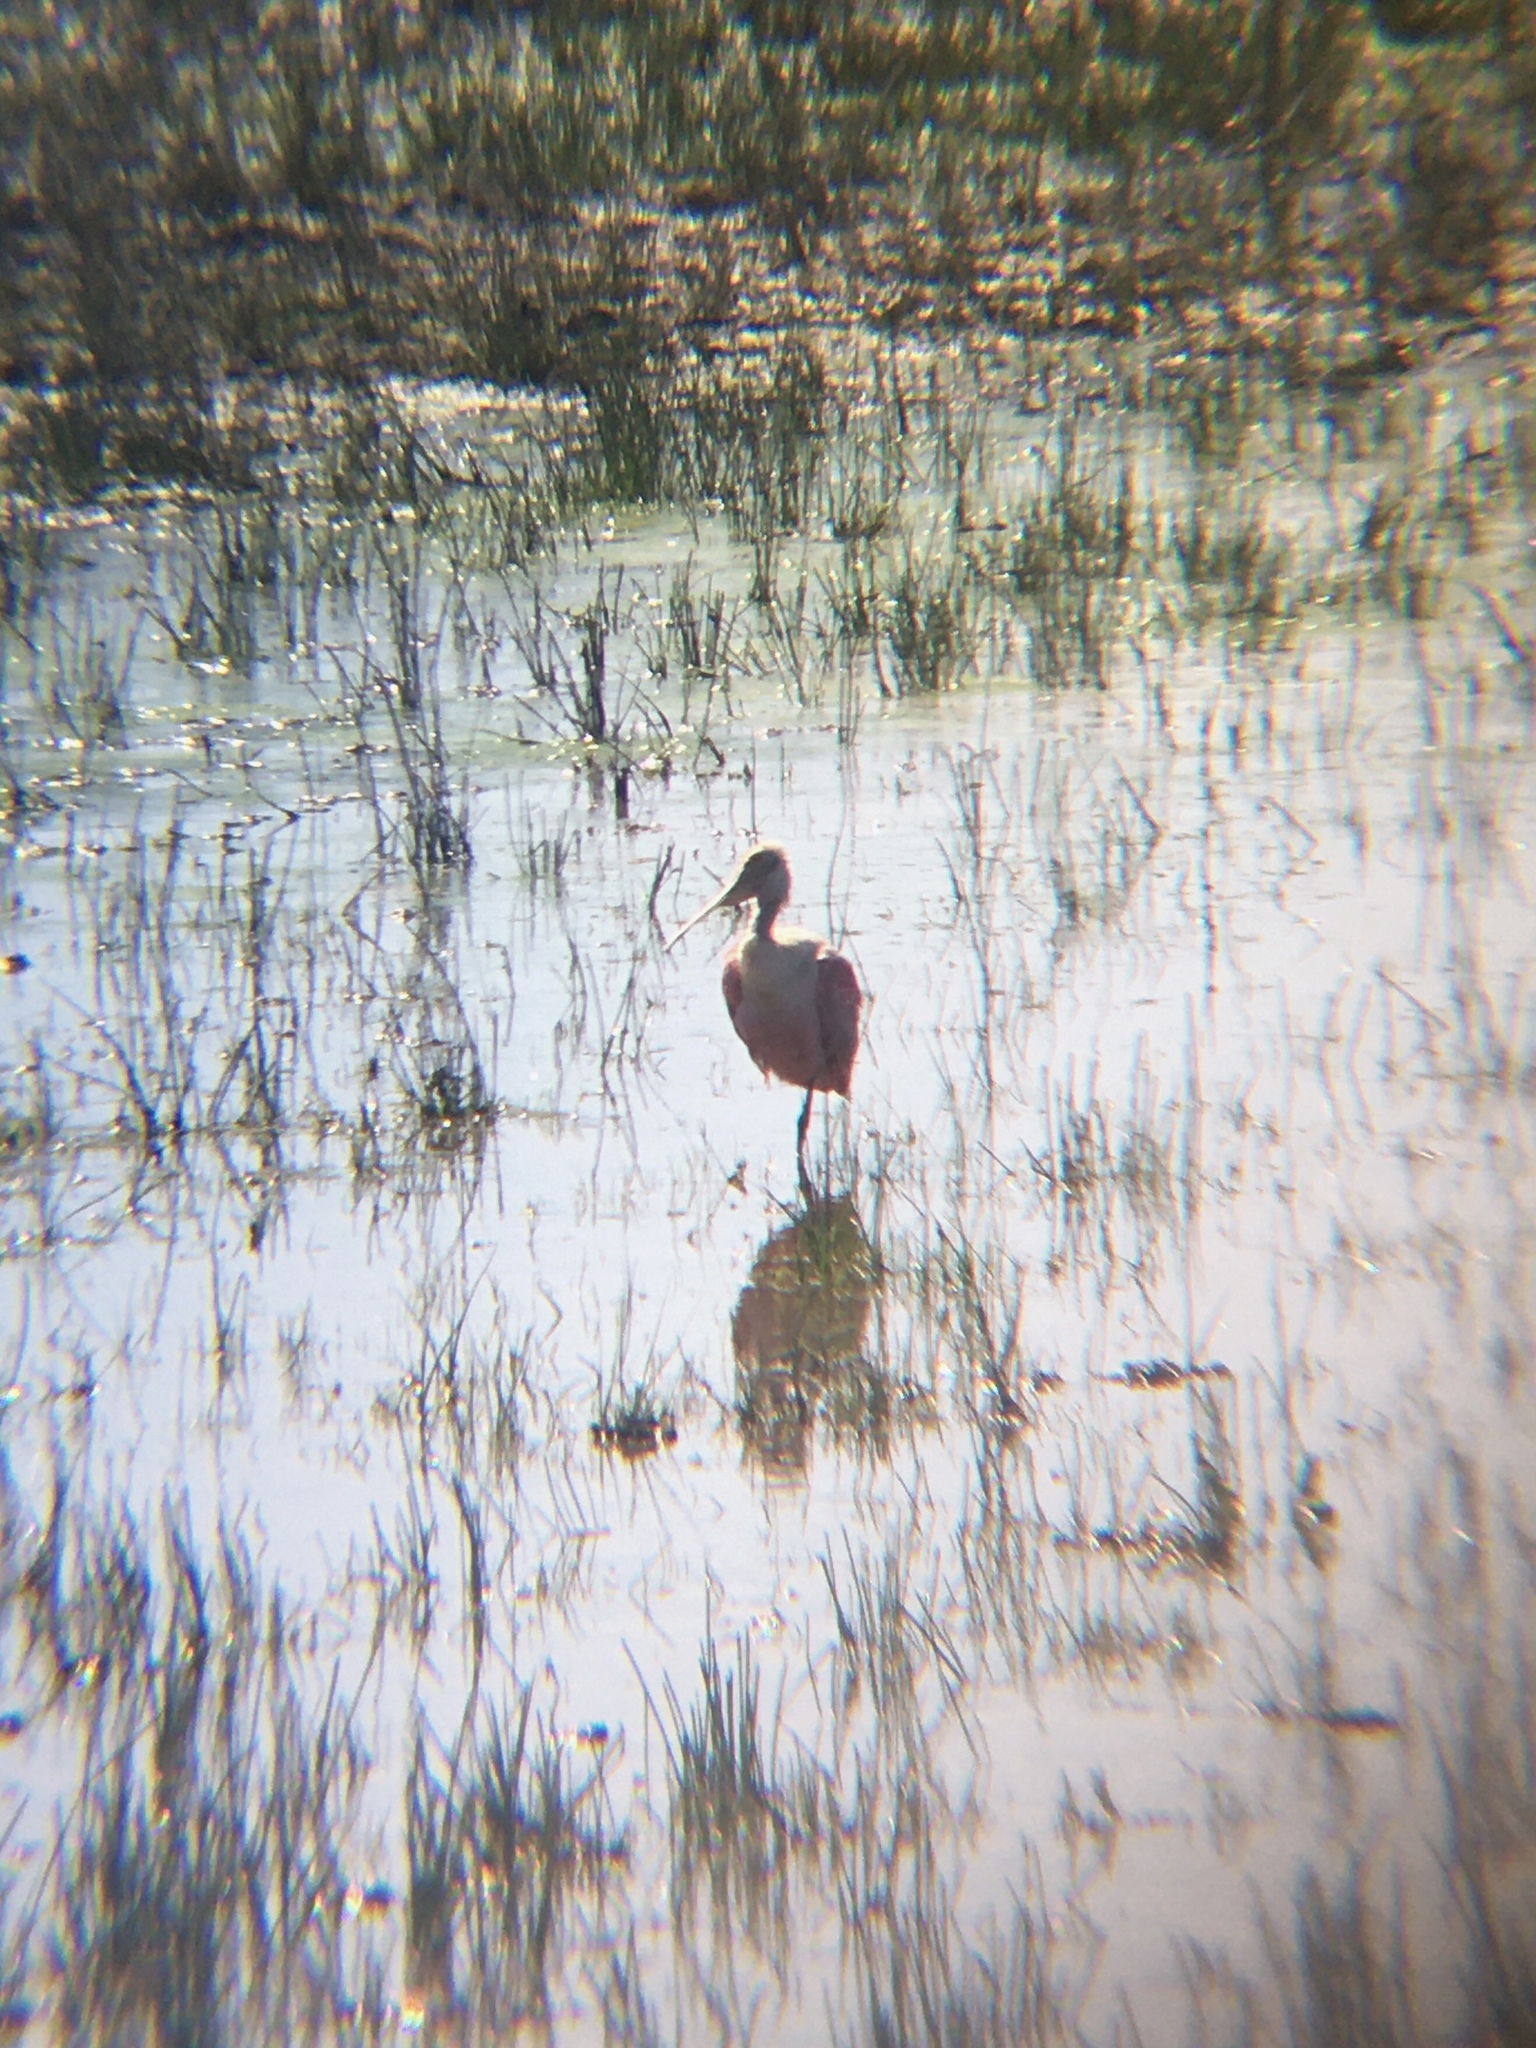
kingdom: Animalia
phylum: Chordata
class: Aves
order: Pelecaniformes
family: Threskiornithidae
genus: Platalea
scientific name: Platalea ajaja
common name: Roseate spoonbill
